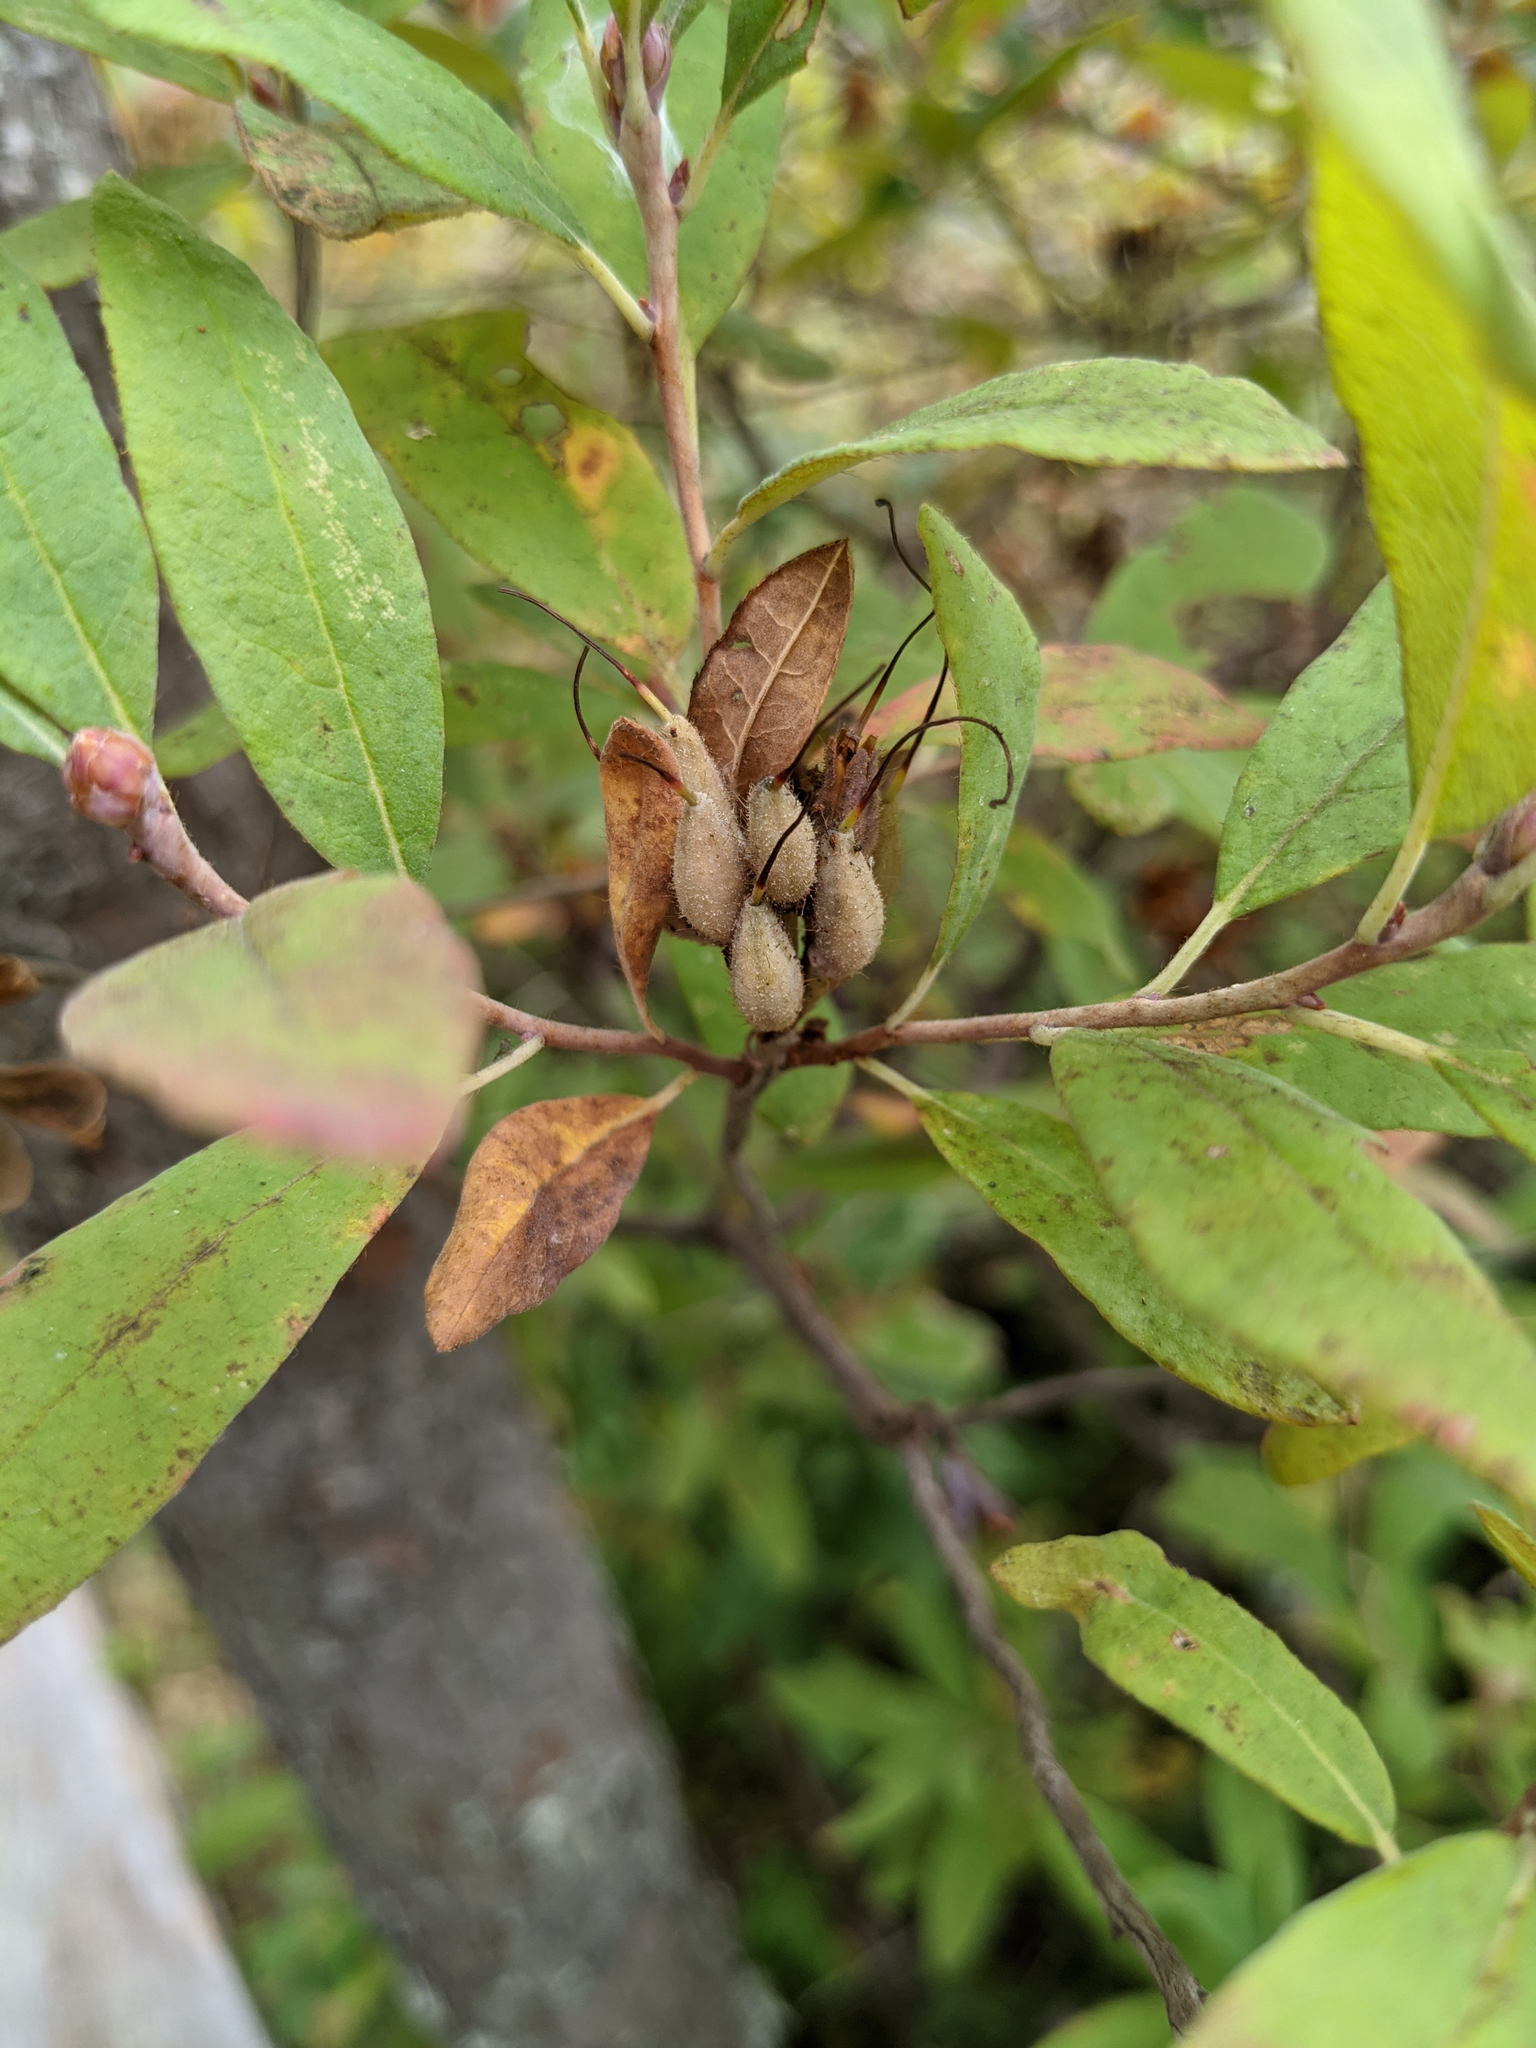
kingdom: Plantae
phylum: Tracheophyta
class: Magnoliopsida
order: Ericales
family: Ericaceae
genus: Rhododendron
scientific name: Rhododendron canadense
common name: Rhodora
